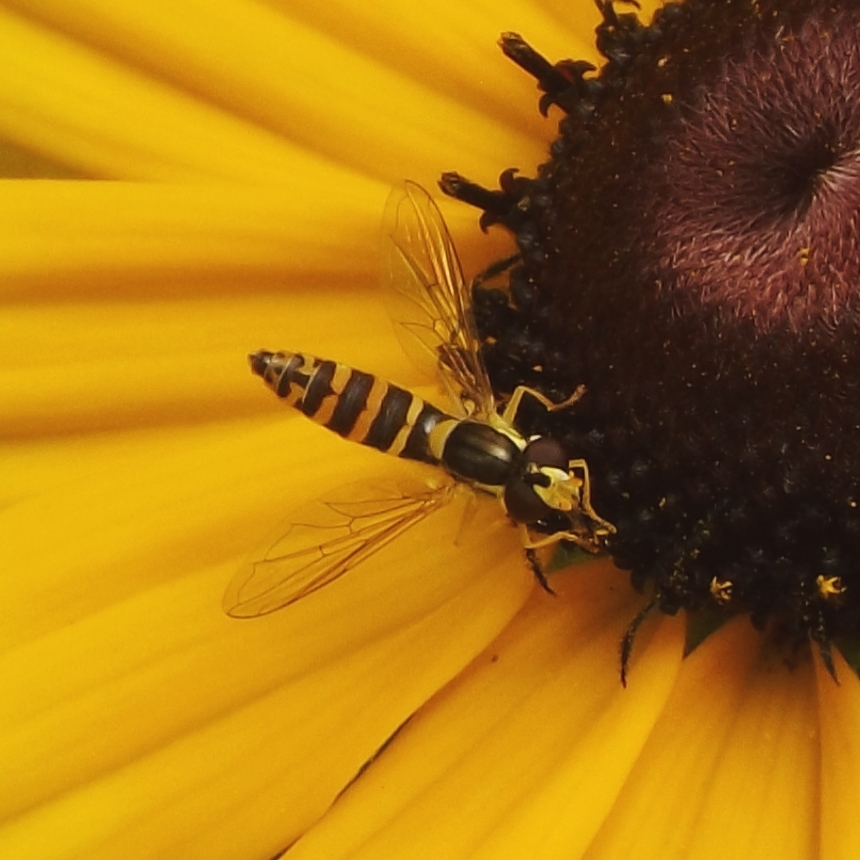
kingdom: Animalia
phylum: Arthropoda
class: Insecta
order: Diptera
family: Syrphidae
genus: Sphaerophoria
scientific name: Sphaerophoria
